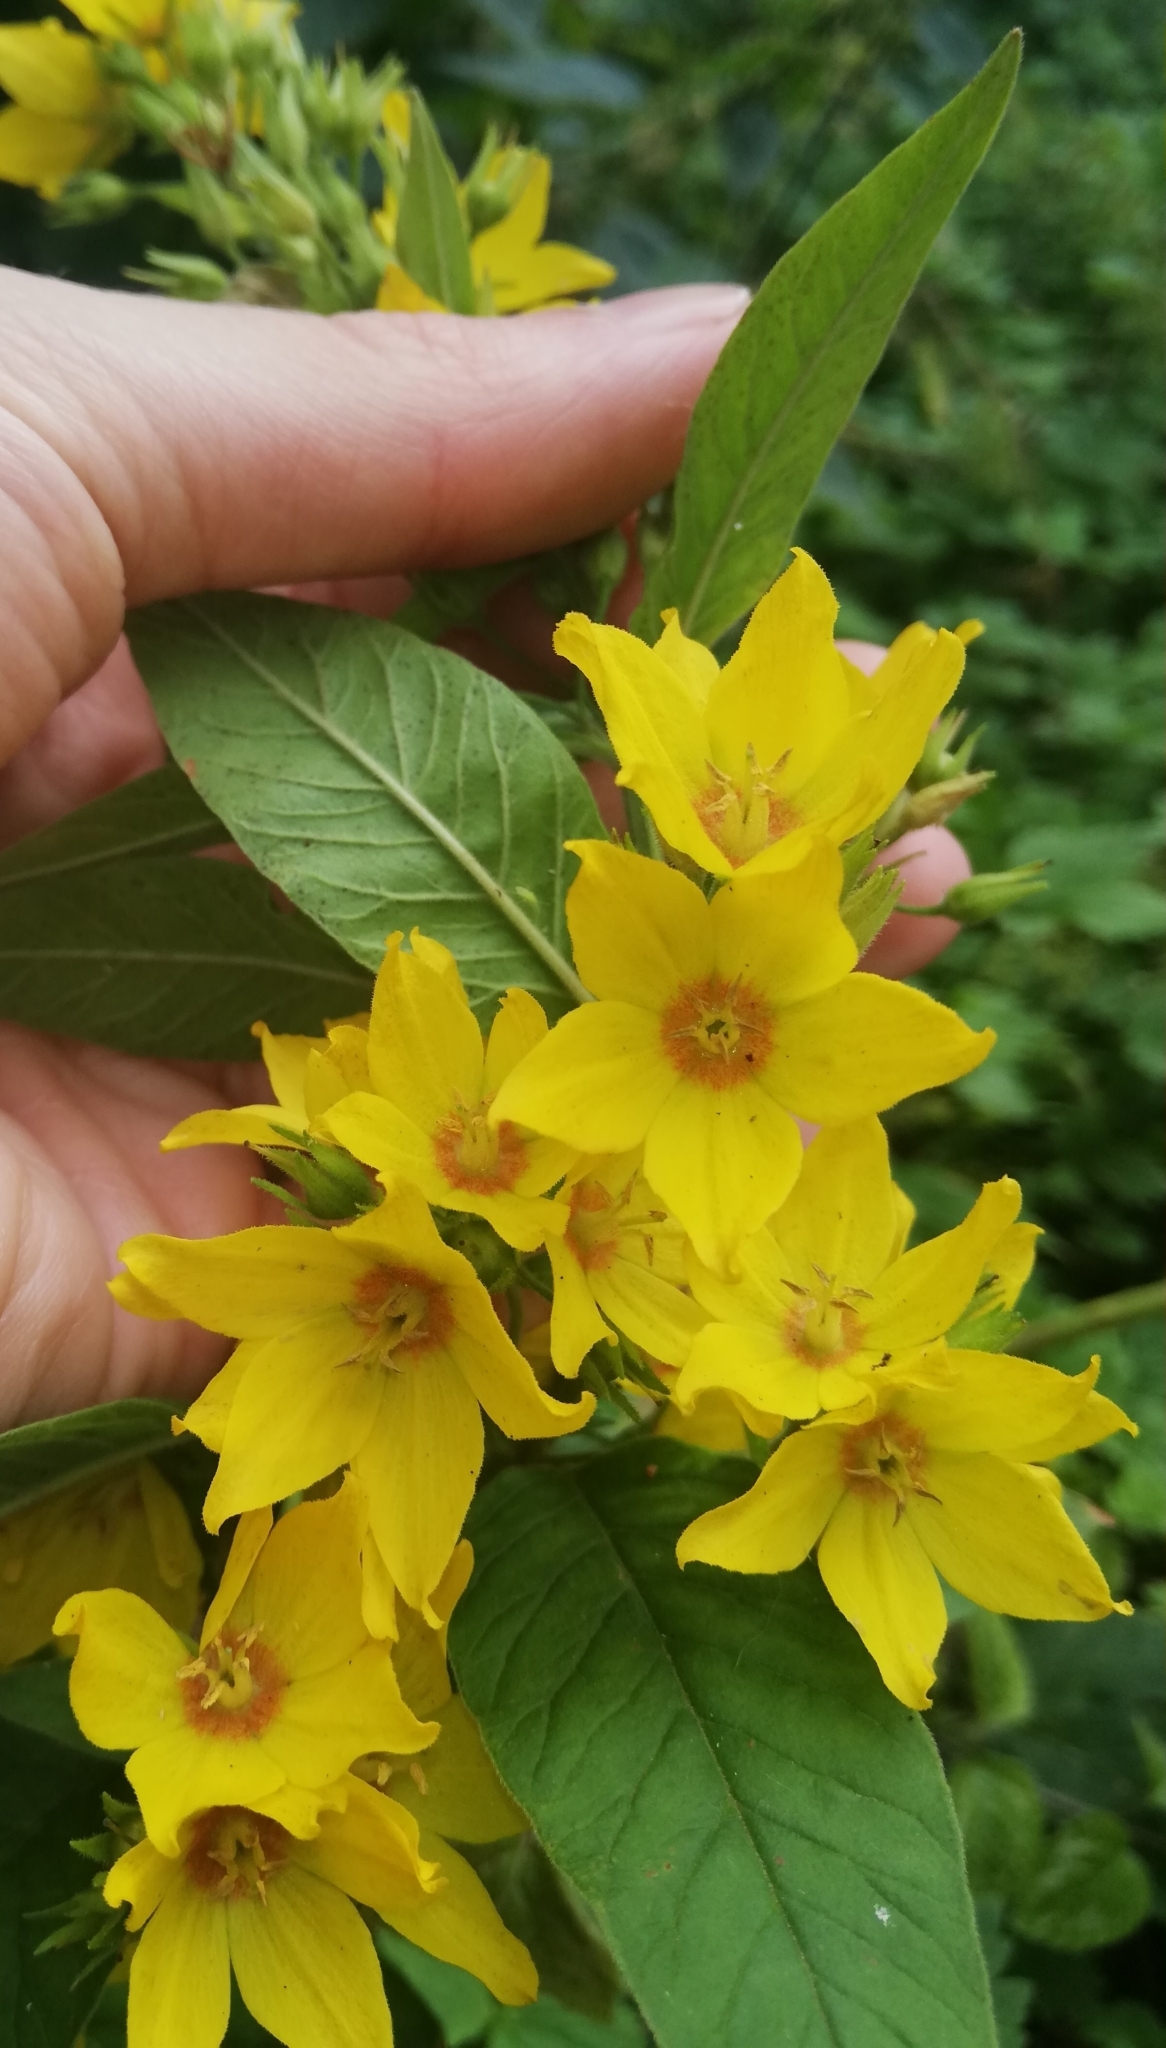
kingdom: Plantae
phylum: Tracheophyta
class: Magnoliopsida
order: Ericales
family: Primulaceae
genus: Lysimachia
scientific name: Lysimachia punctata
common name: Dotted loosestrife
